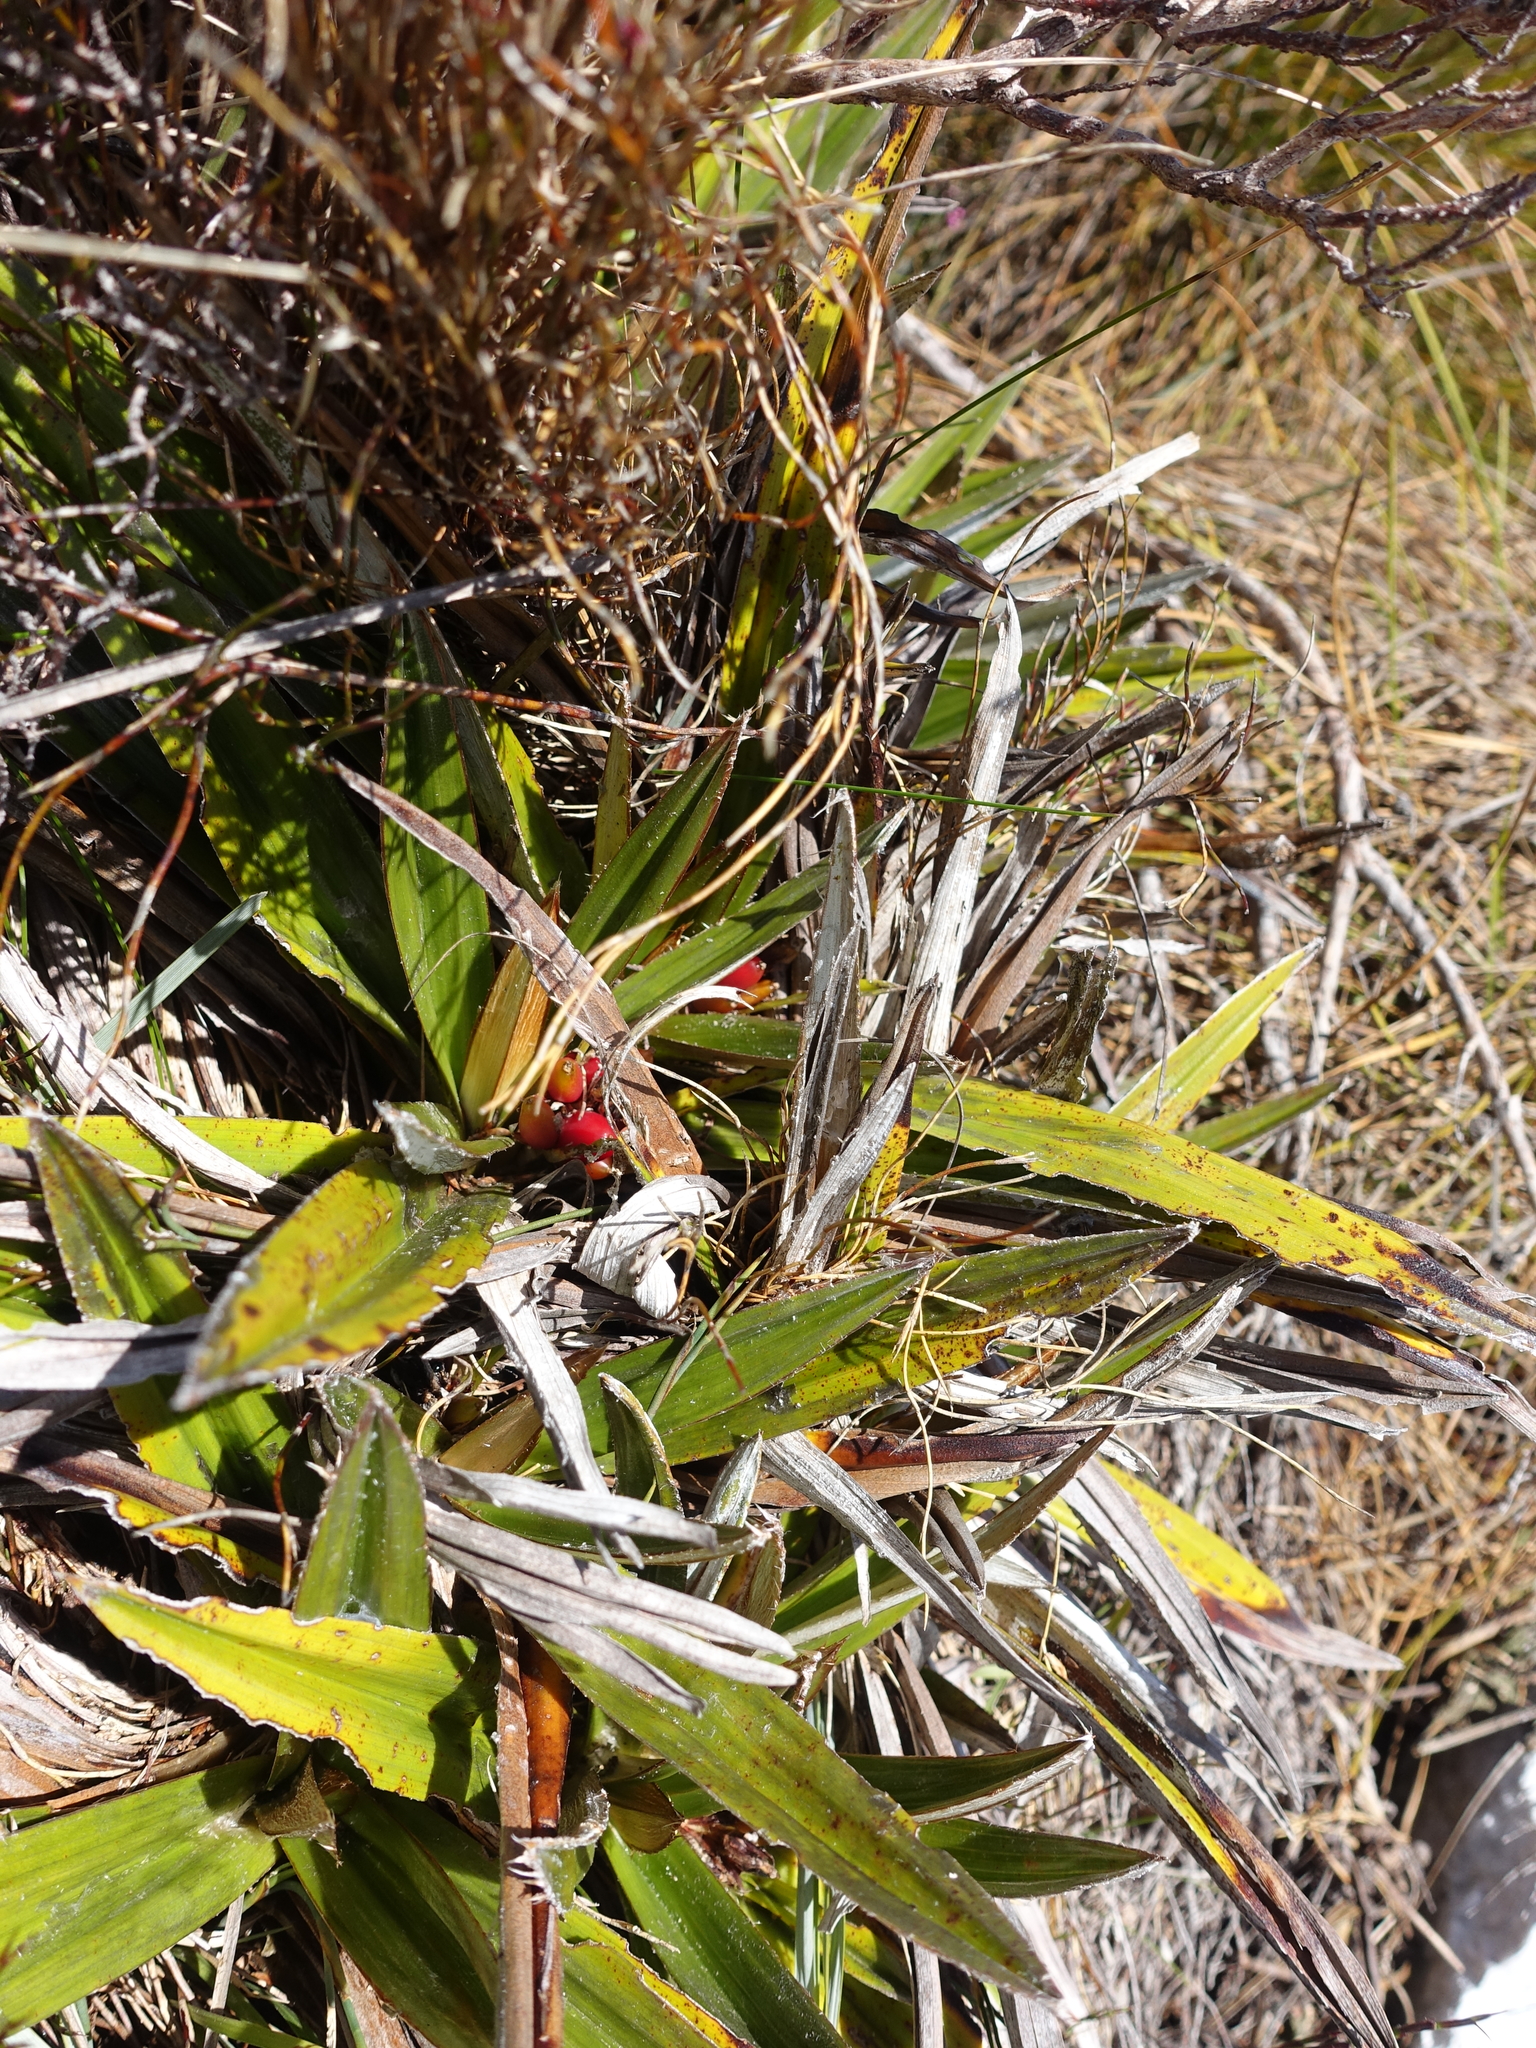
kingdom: Plantae
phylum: Tracheophyta
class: Liliopsida
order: Asparagales
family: Asteliaceae
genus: Astelia
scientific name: Astelia alpina
